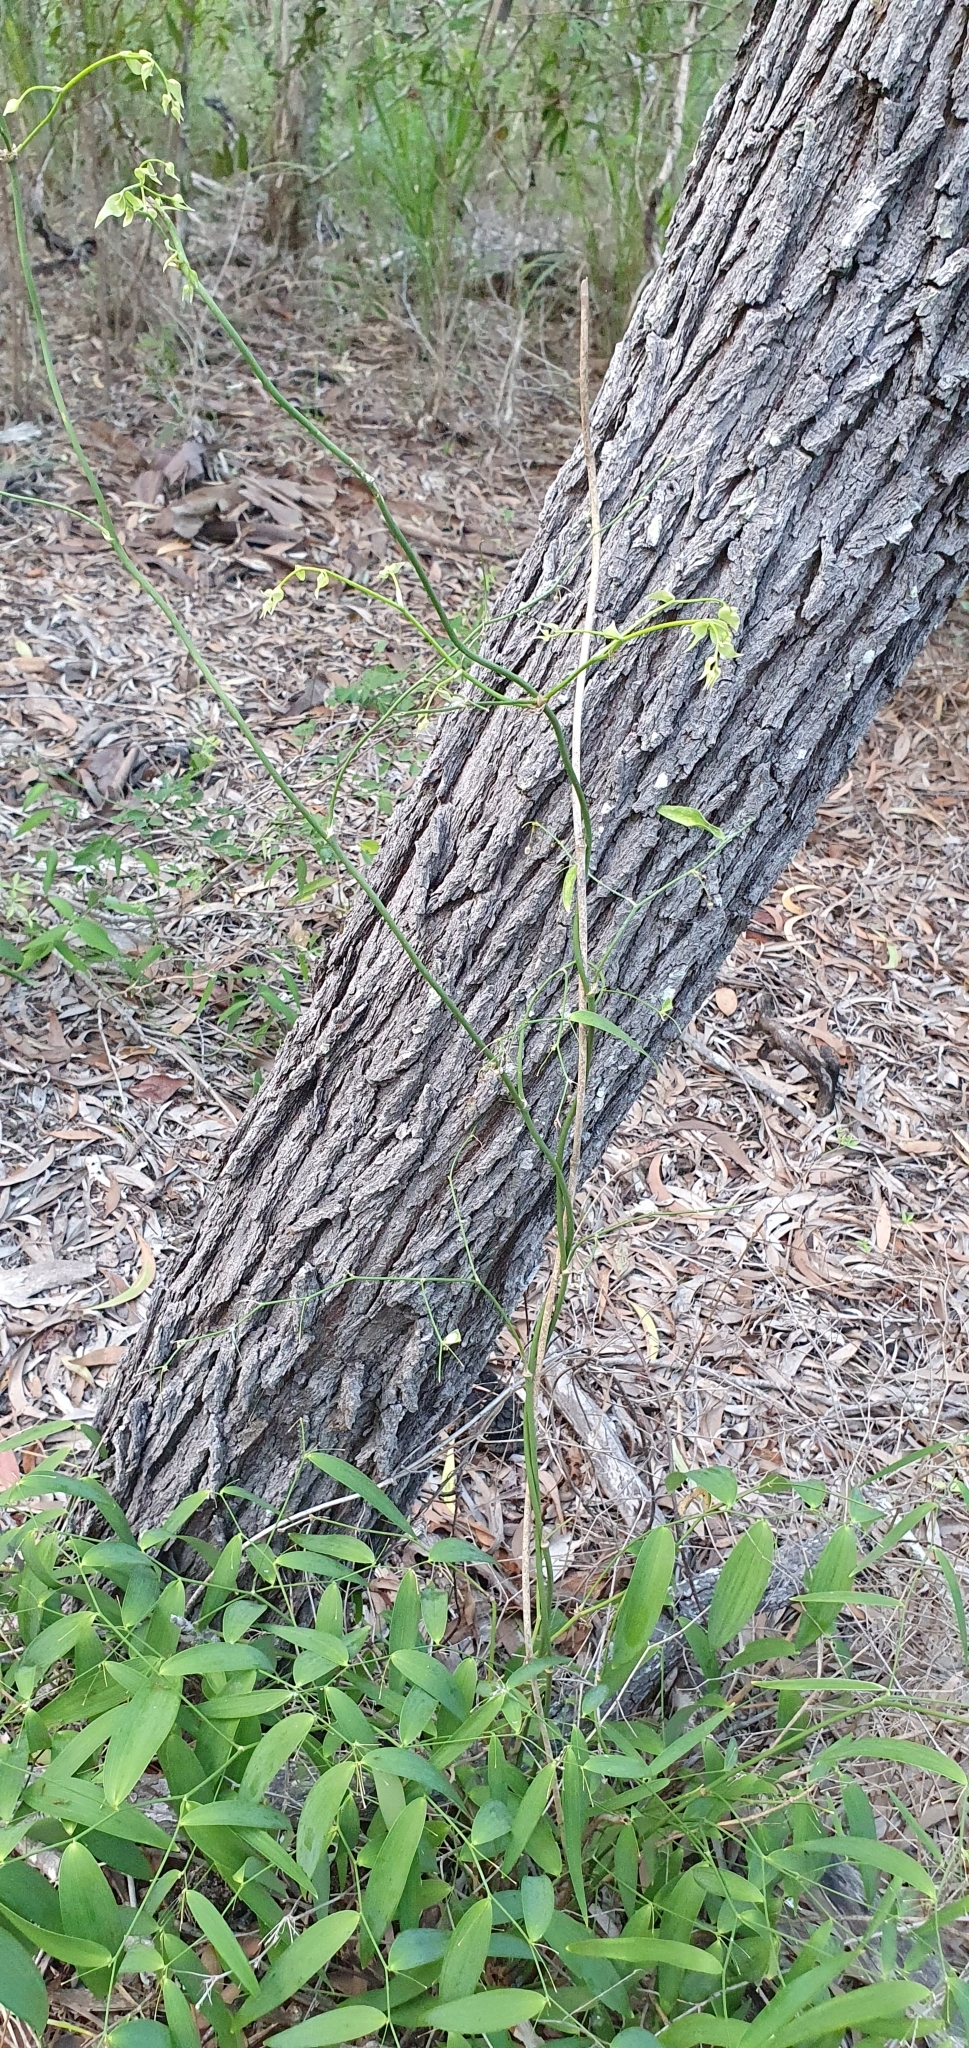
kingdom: Plantae
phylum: Tracheophyta
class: Liliopsida
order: Asparagales
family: Asparagaceae
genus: Eustrephus
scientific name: Eustrephus latifolius
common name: Orangevine
